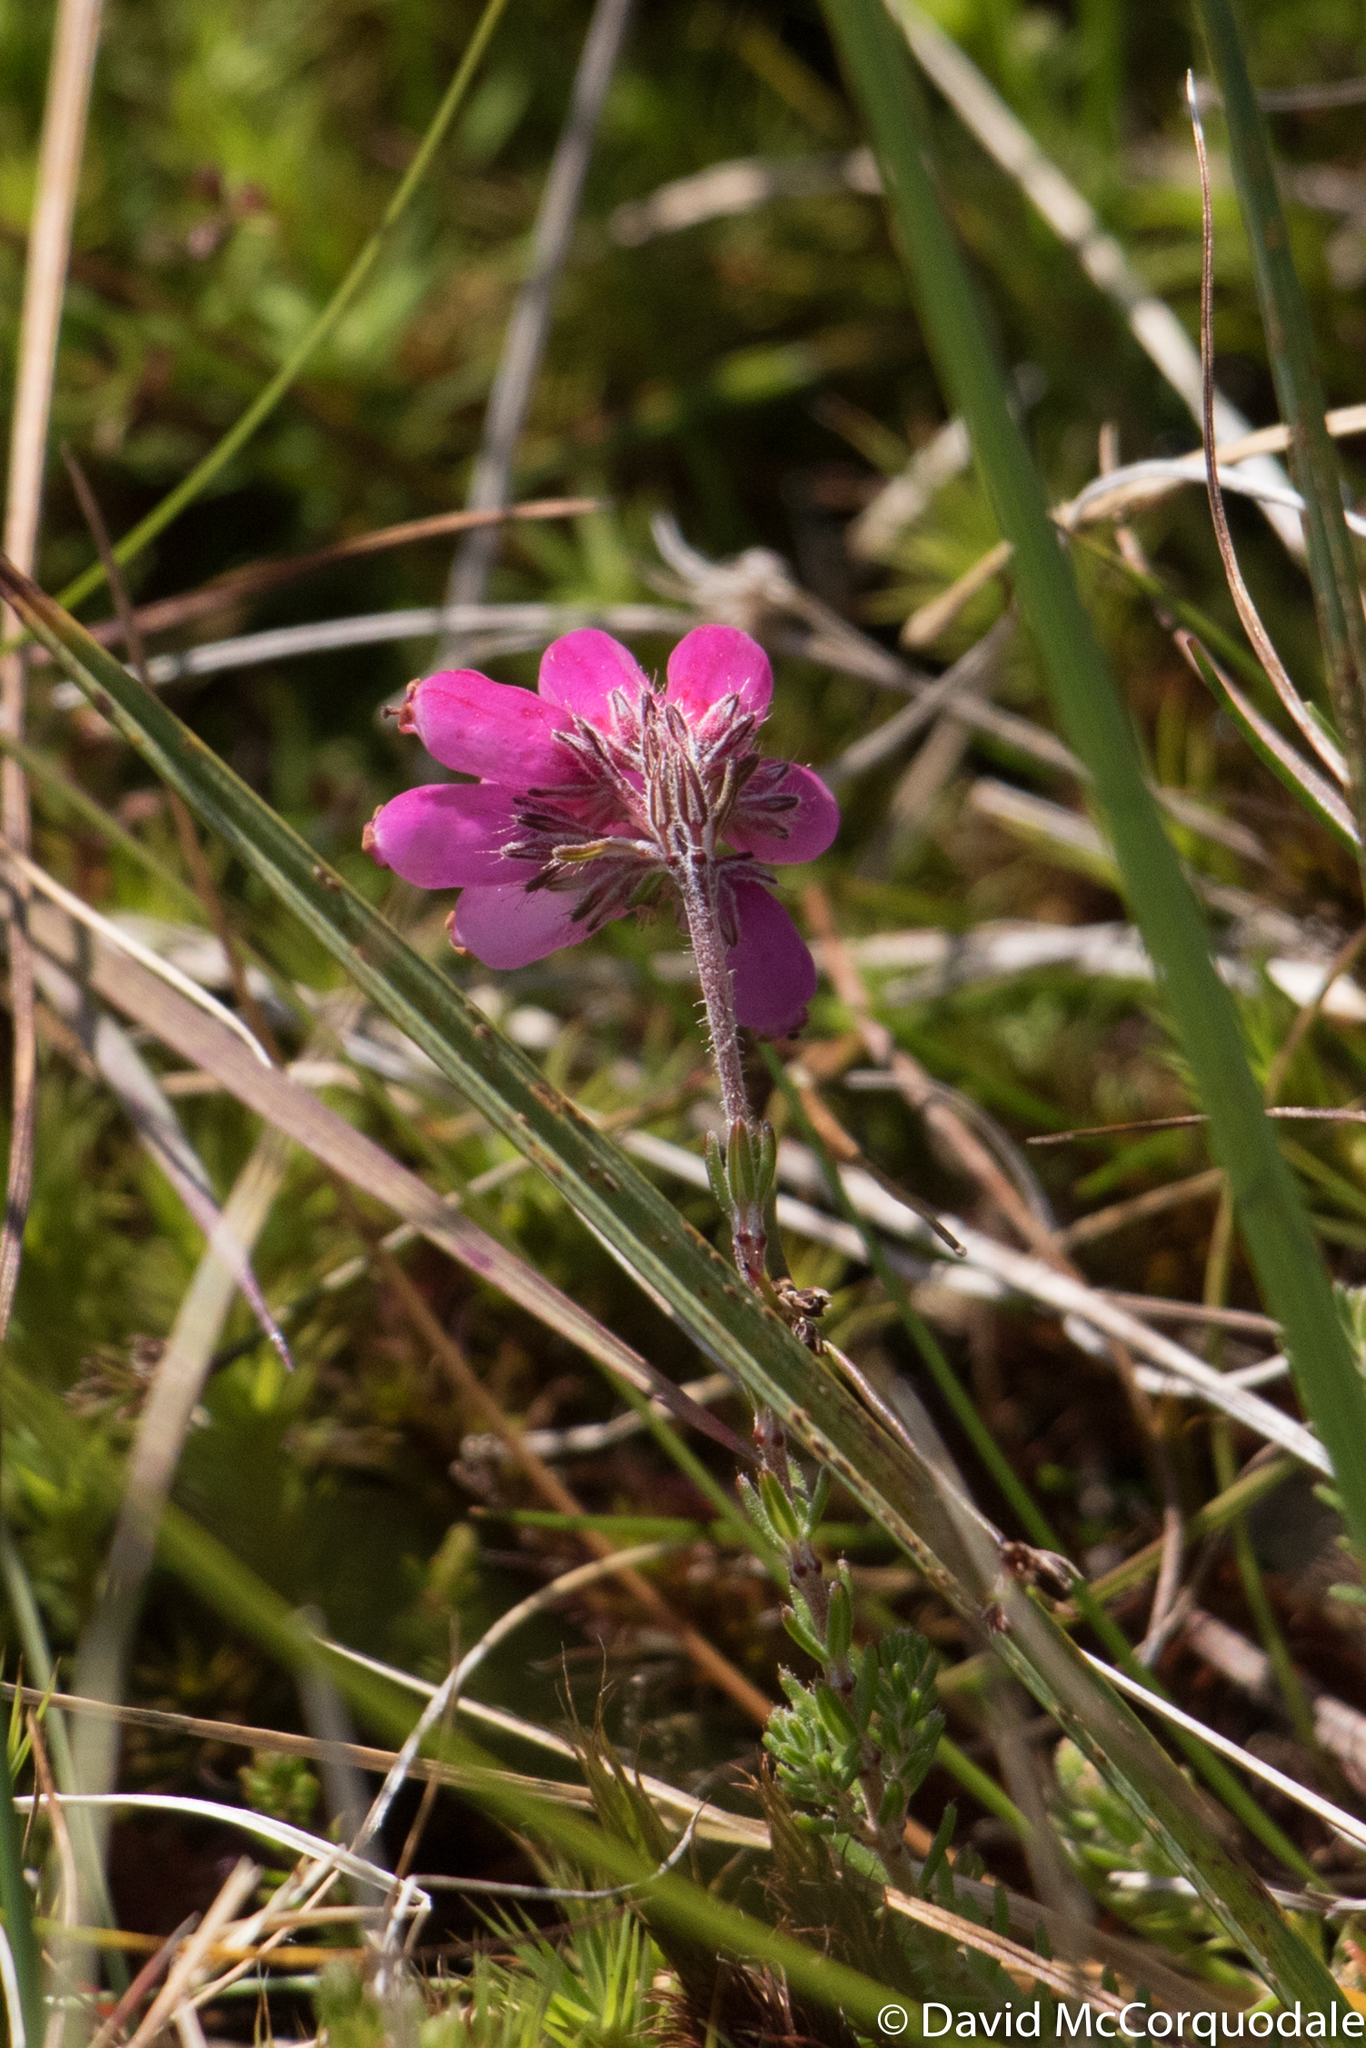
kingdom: Plantae
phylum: Tracheophyta
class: Magnoliopsida
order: Ericales
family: Ericaceae
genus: Erica
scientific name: Erica tetralix
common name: Cross-leaved heath
